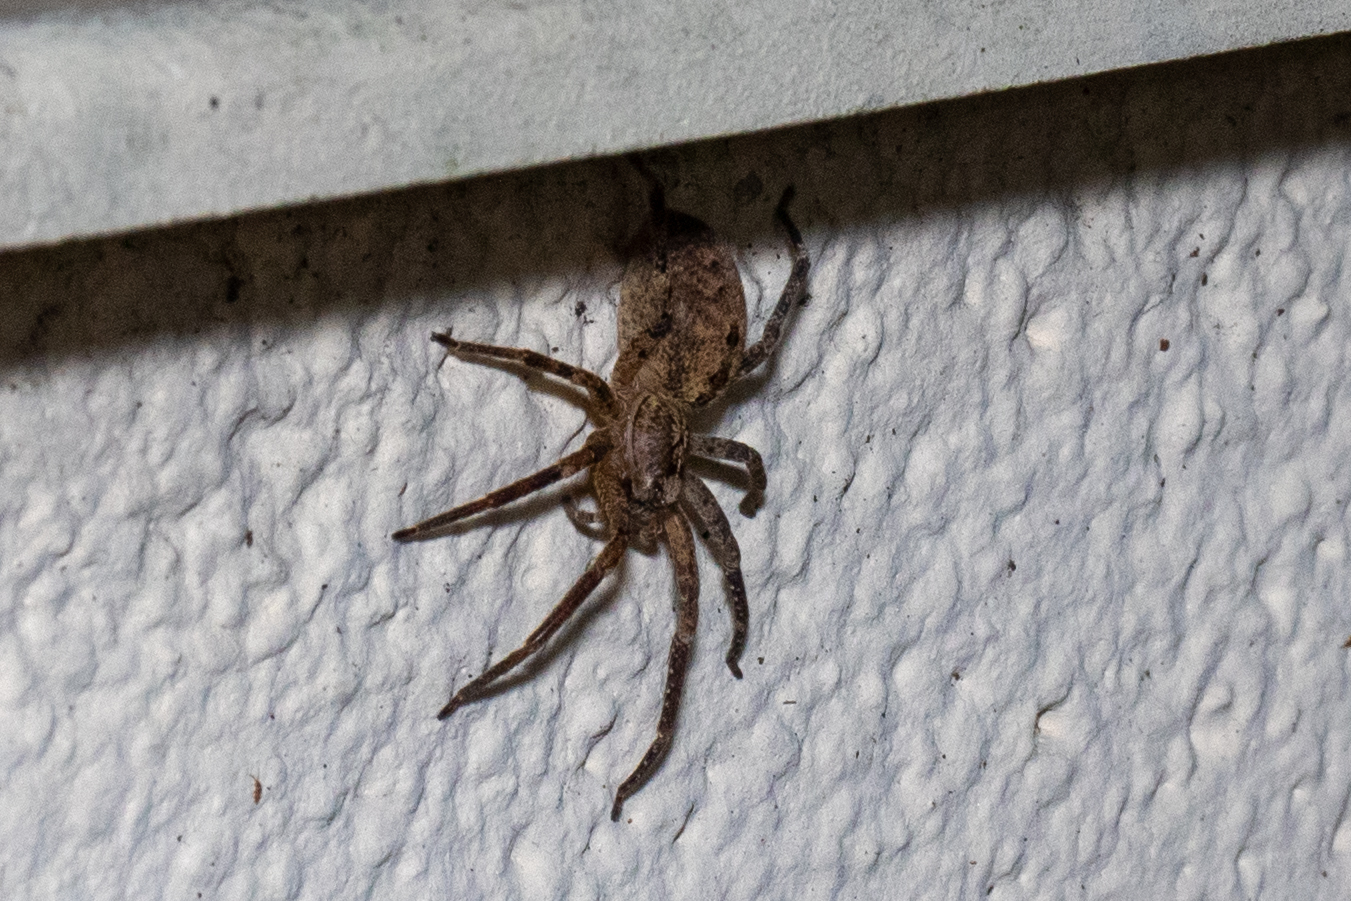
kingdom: Animalia
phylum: Arthropoda
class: Arachnida
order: Araneae
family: Zoropsidae
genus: Zoropsis
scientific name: Zoropsis spinimana
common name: Zoropsid spider
